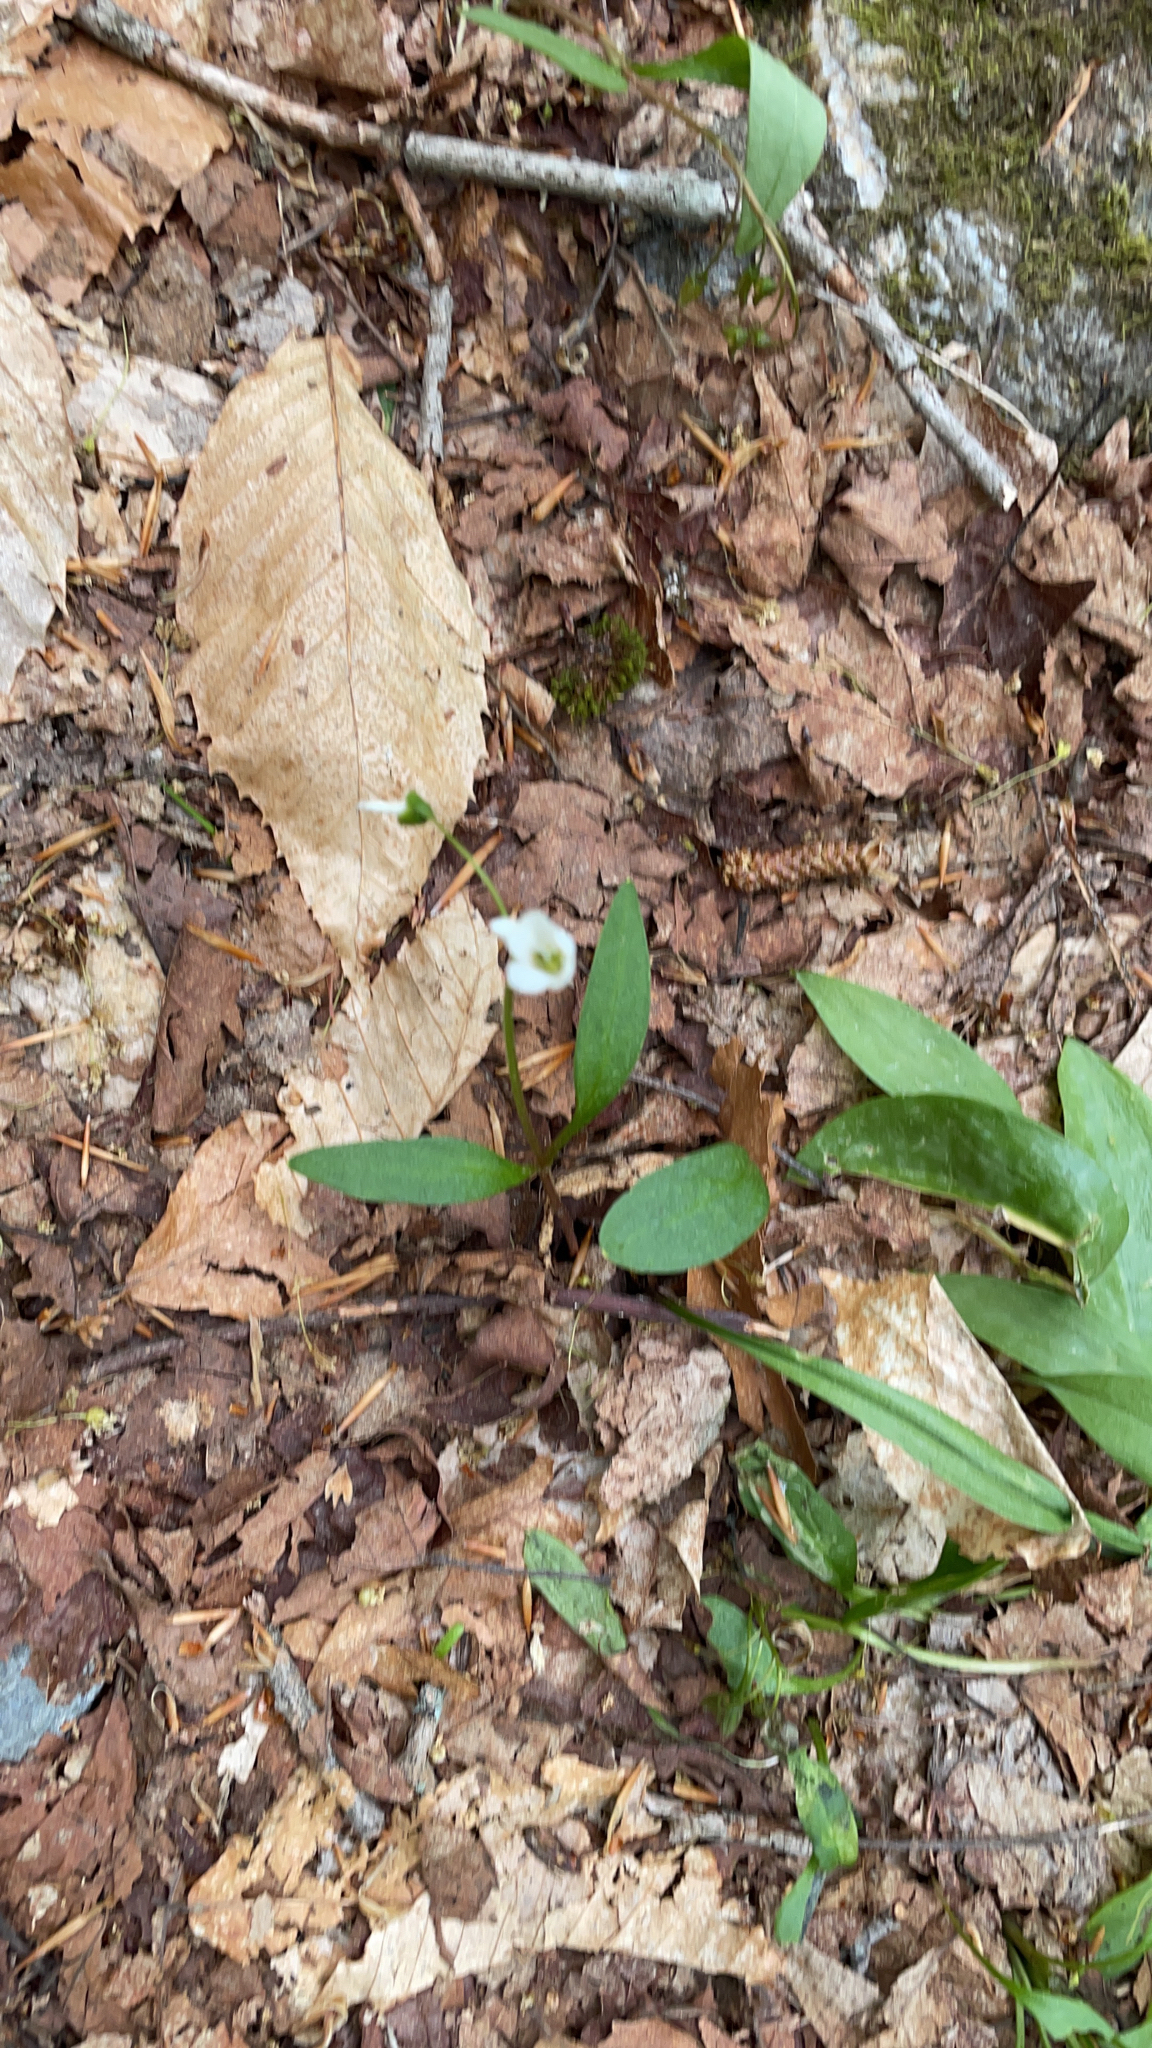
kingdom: Plantae
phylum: Tracheophyta
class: Magnoliopsida
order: Caryophyllales
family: Montiaceae
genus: Claytonia
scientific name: Claytonia caroliniana
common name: Carolina spring beauty
